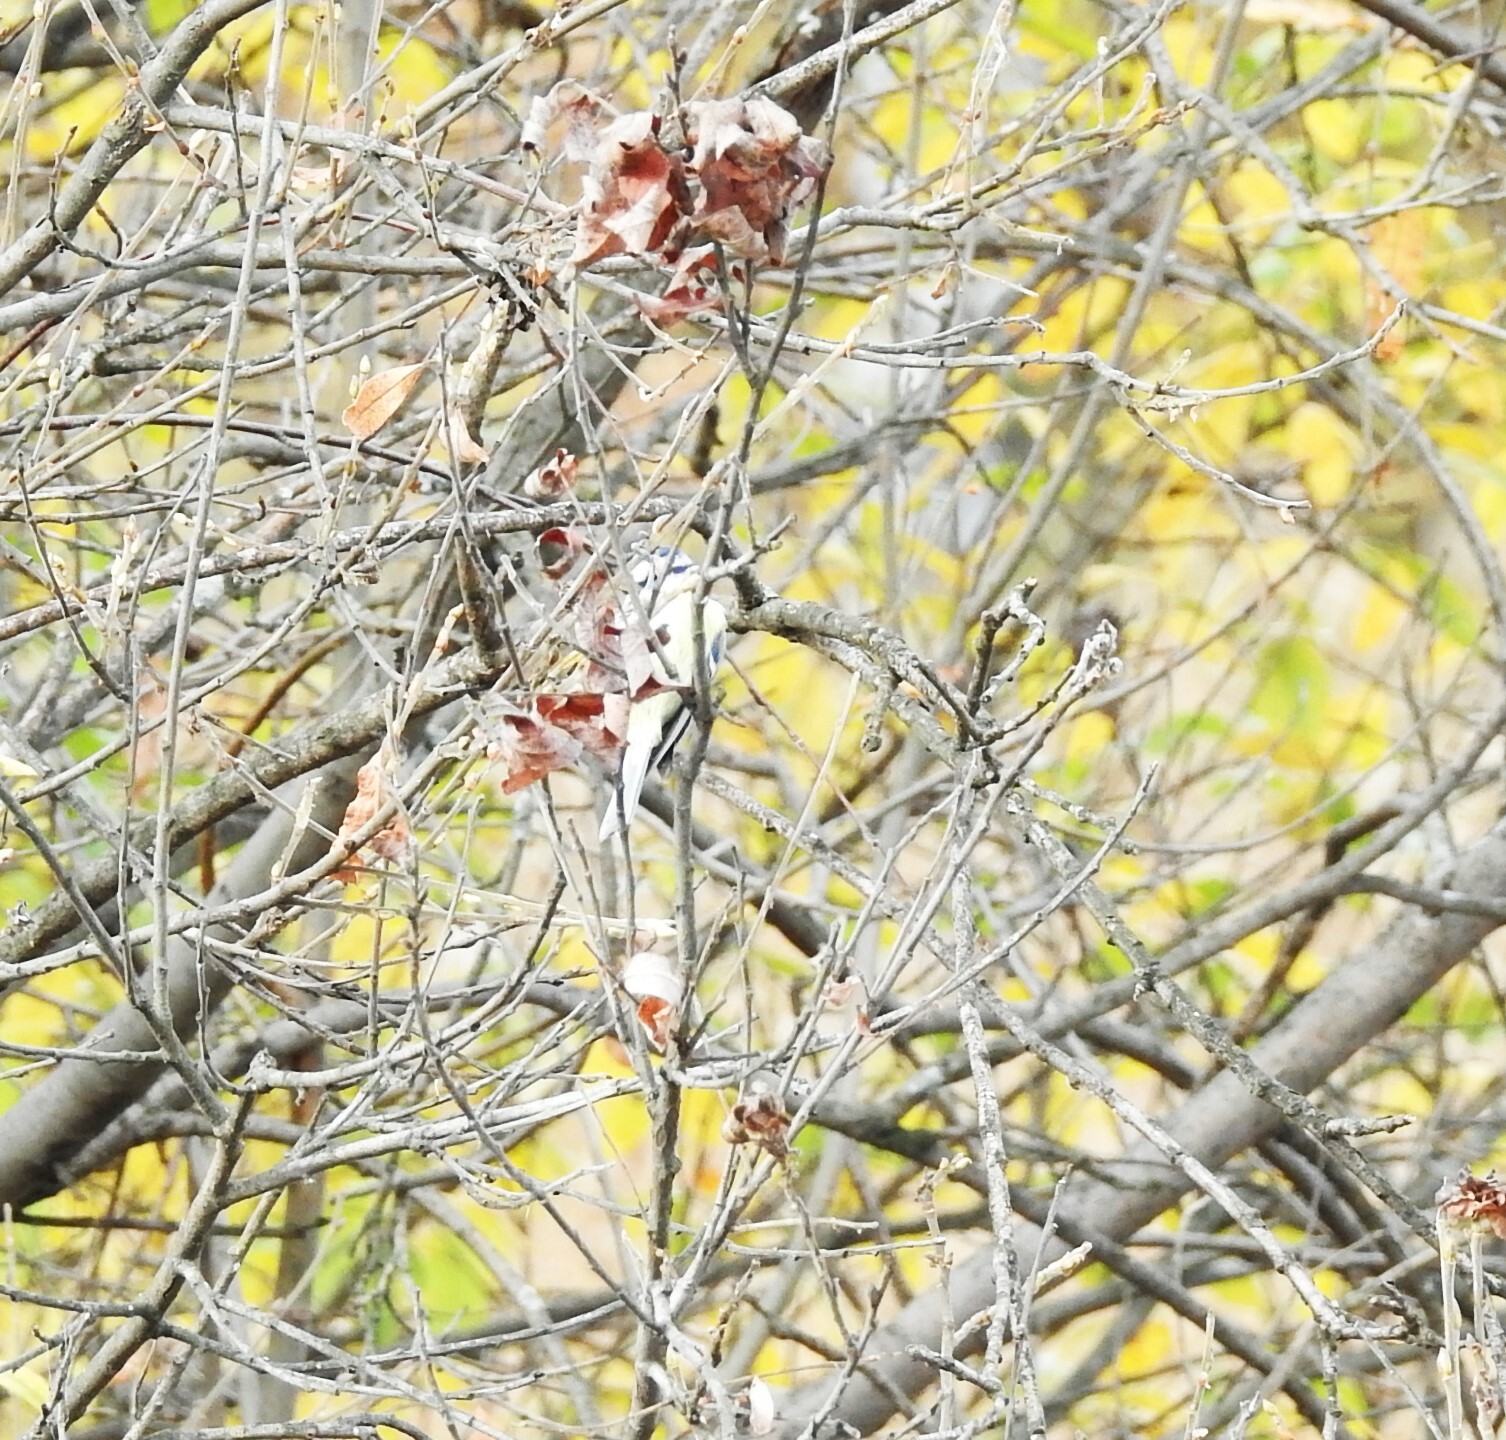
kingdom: Animalia
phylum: Chordata
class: Aves
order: Passeriformes
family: Paridae
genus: Cyanistes
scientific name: Cyanistes cyanus
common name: Azure tit
